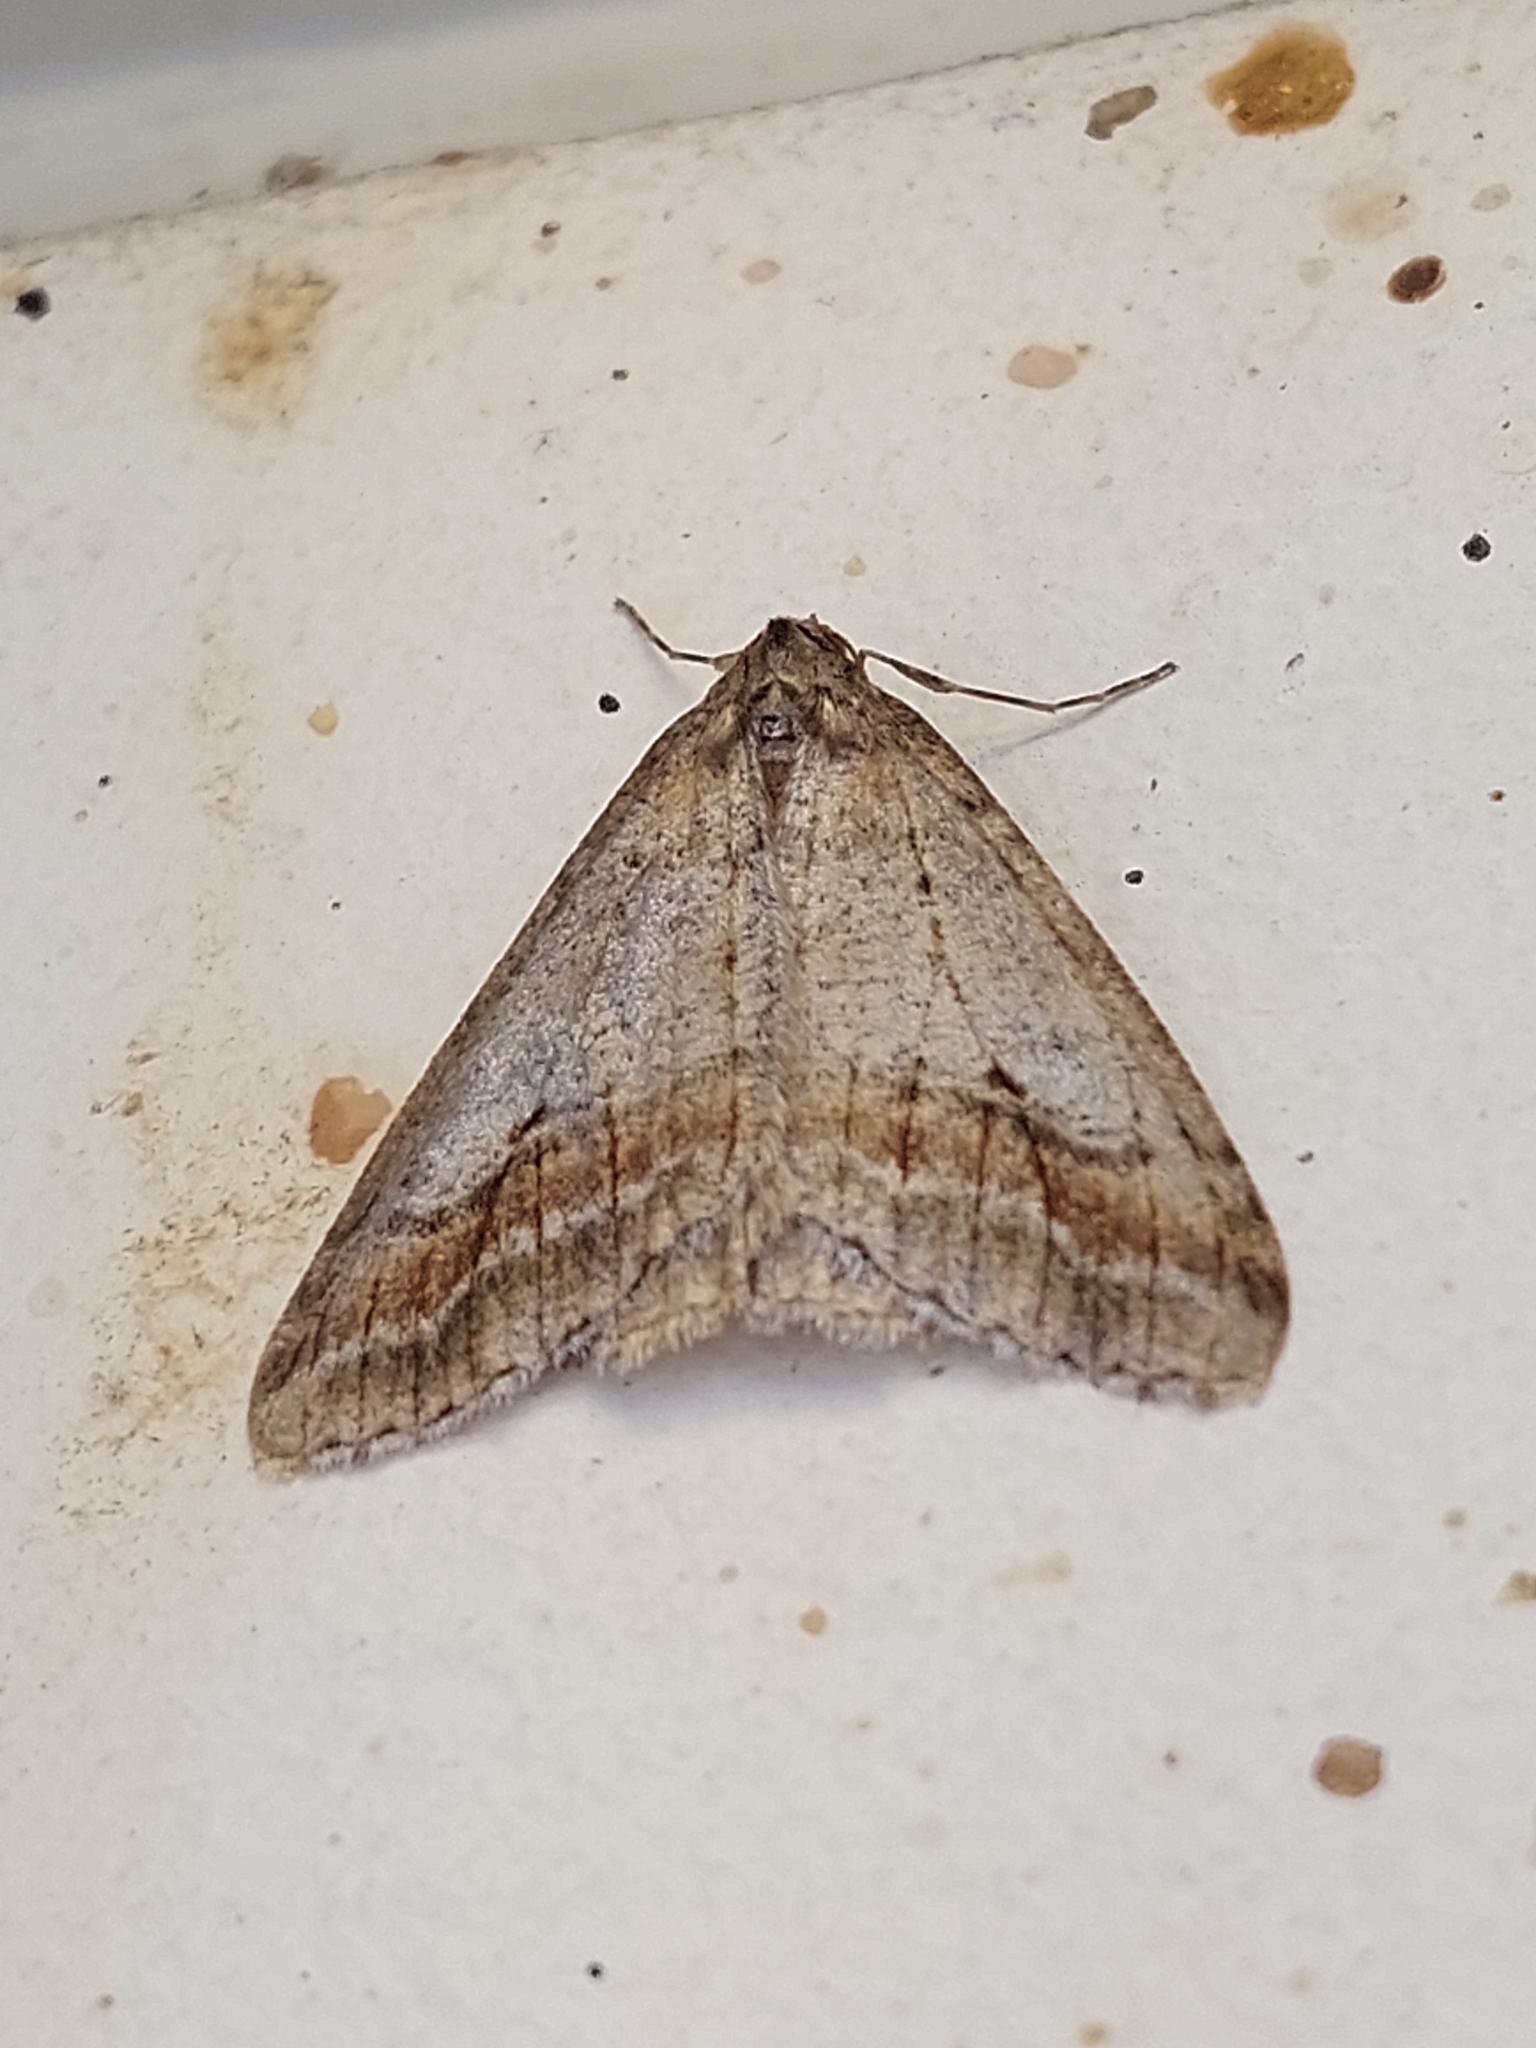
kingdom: Animalia
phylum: Arthropoda
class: Insecta
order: Lepidoptera
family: Geometridae
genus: Erannis
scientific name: Erannis declinans
